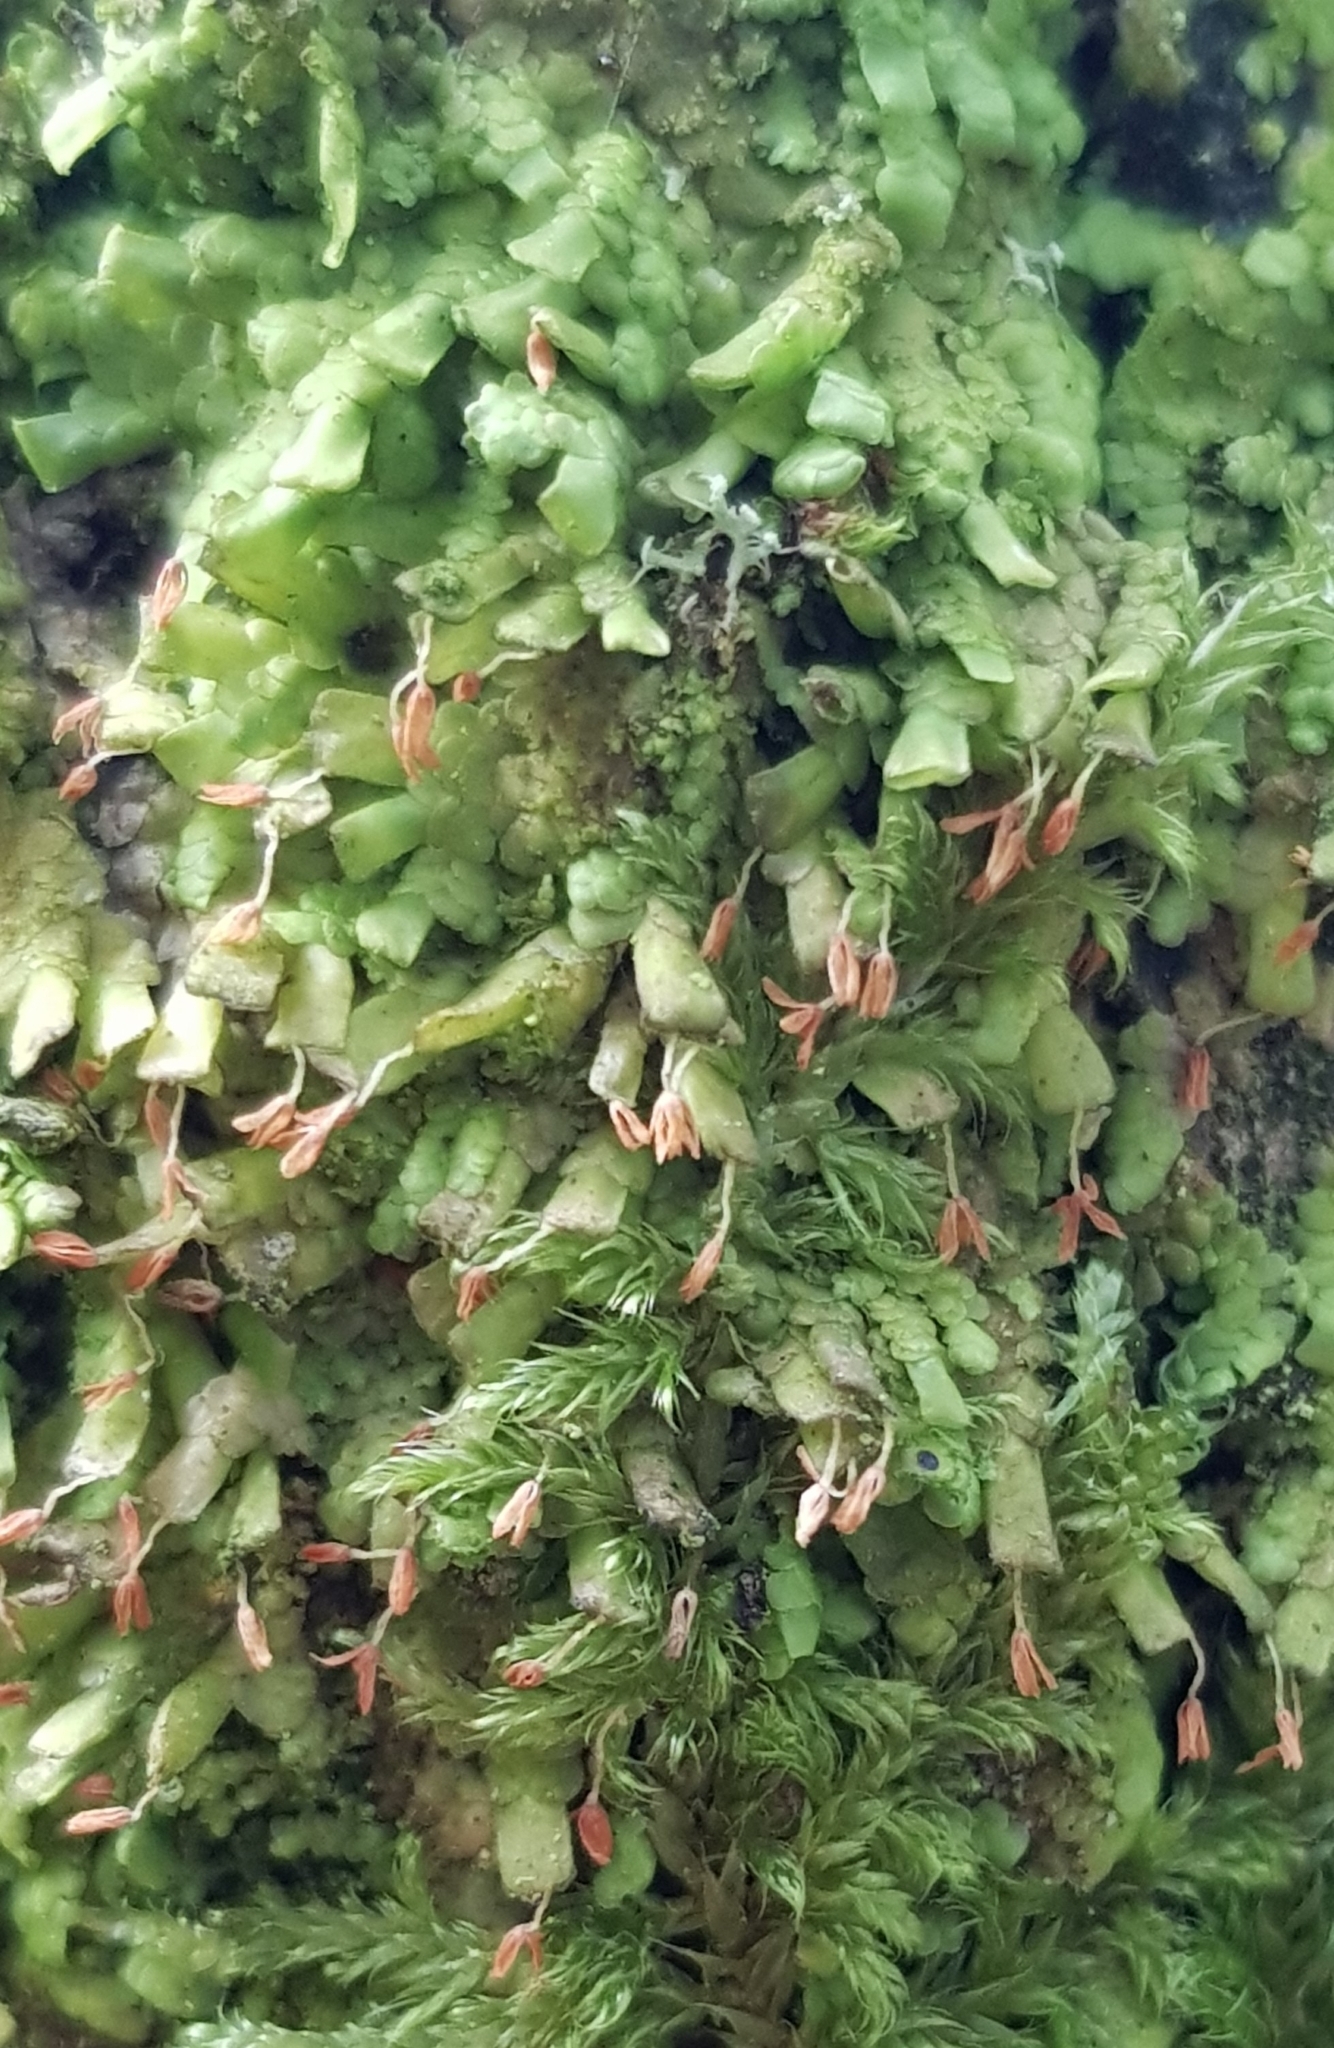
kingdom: Plantae
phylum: Marchantiophyta
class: Jungermanniopsida
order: Porellales
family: Radulaceae
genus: Radula
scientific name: Radula complanata
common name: Flat-leaved scalewort
